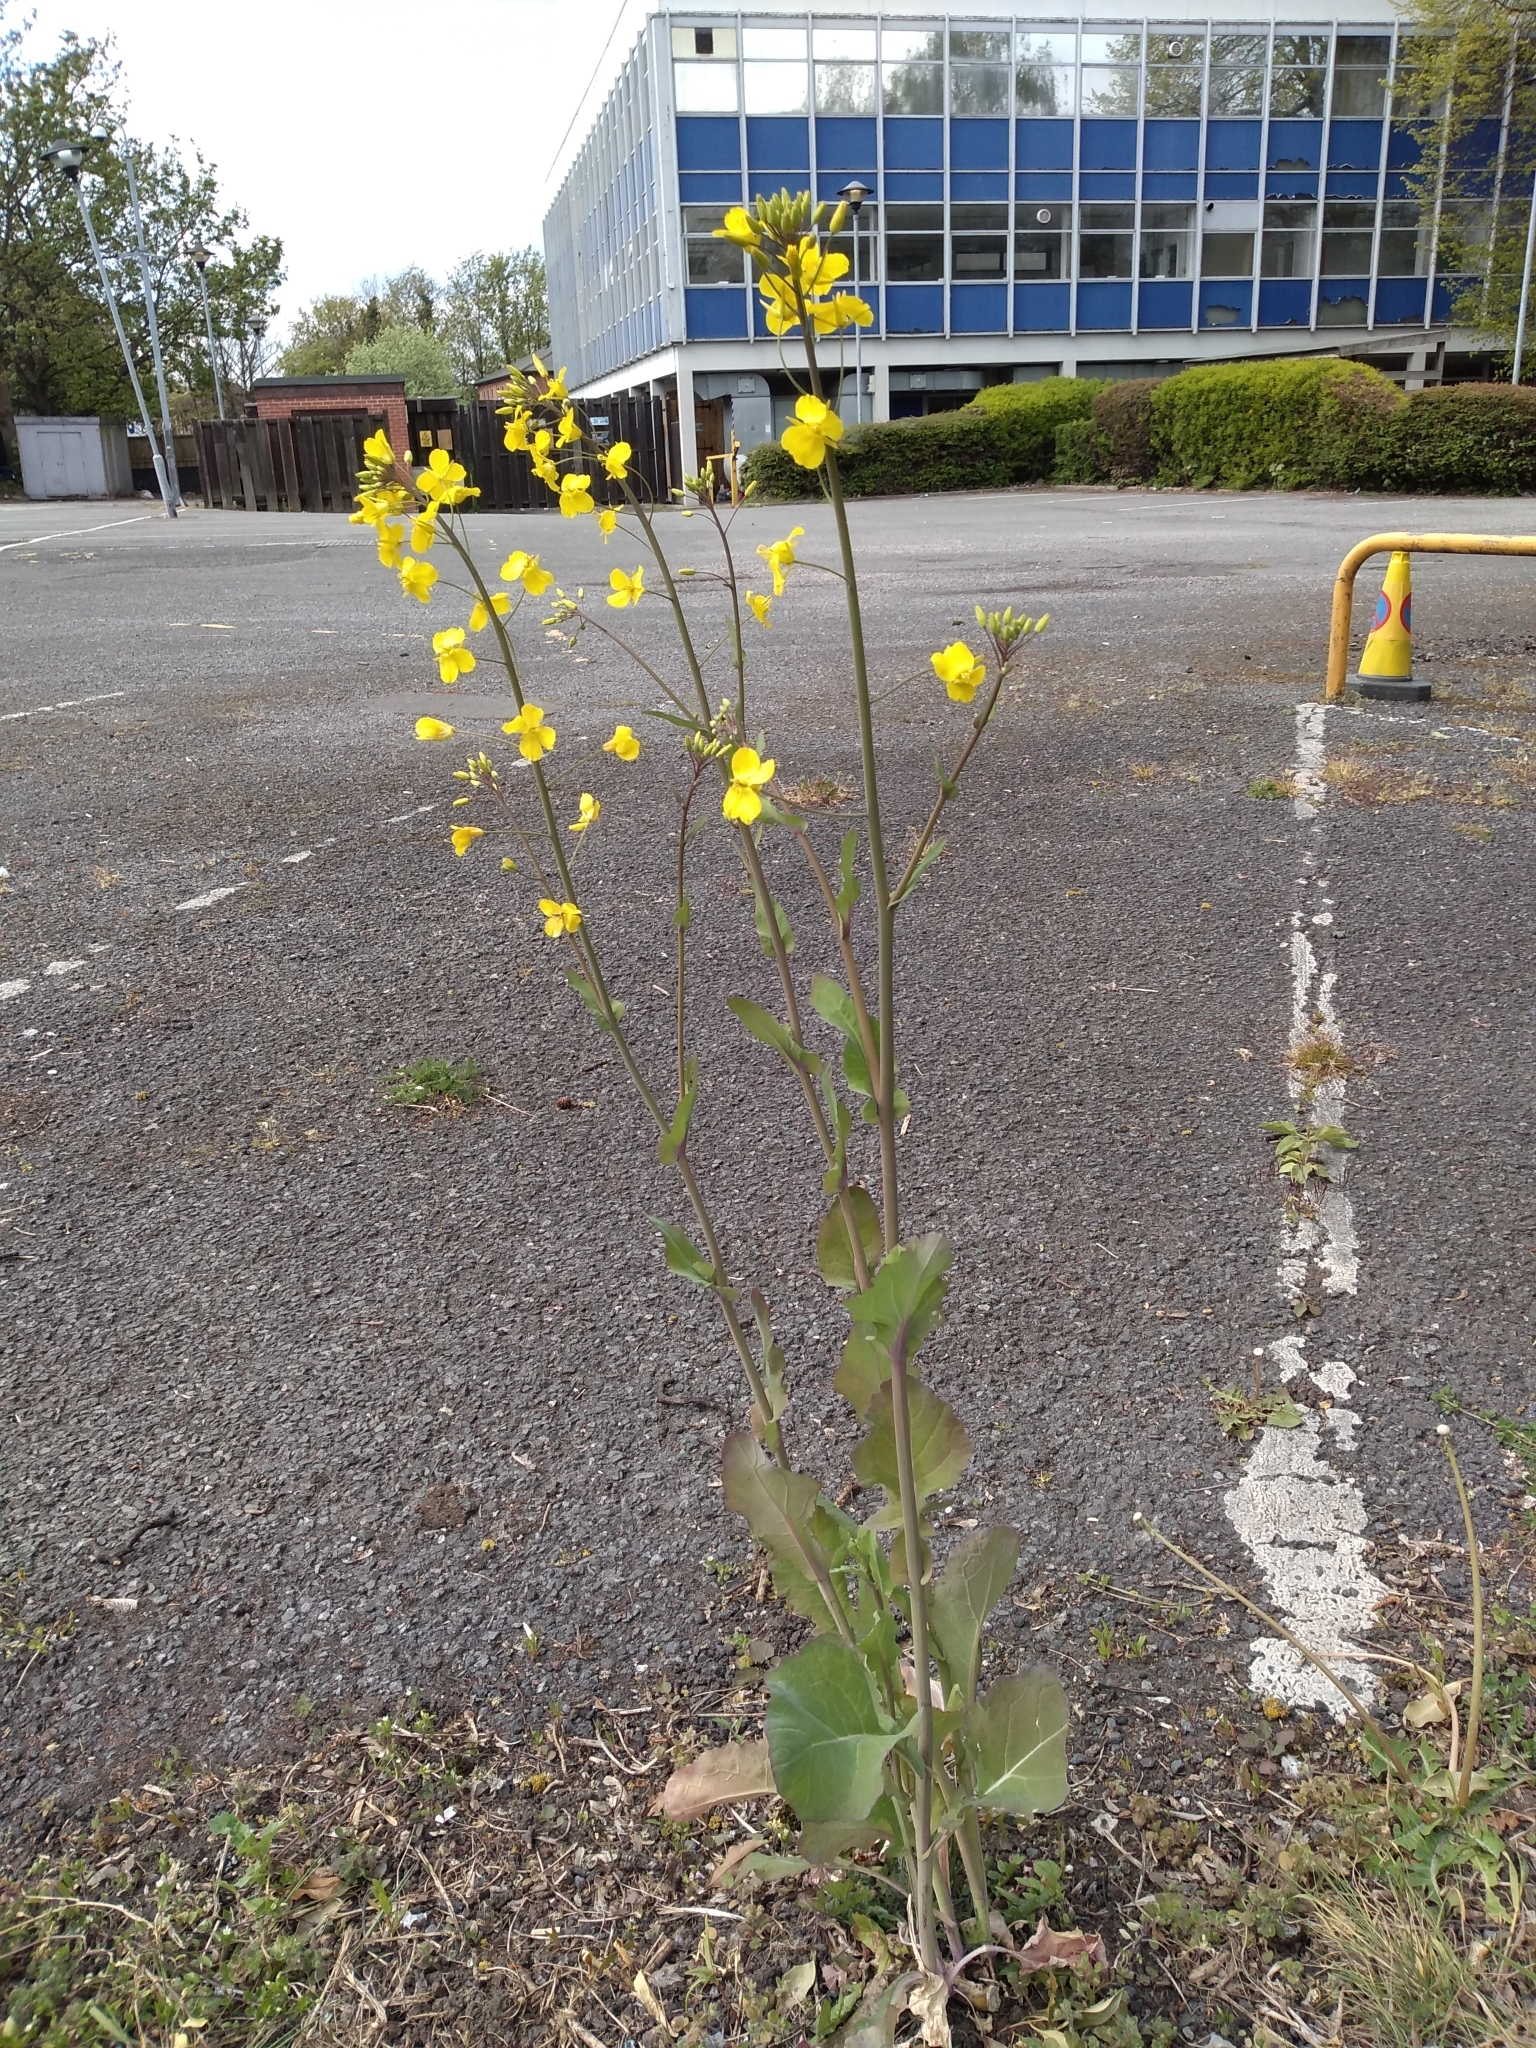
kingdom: Plantae
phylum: Tracheophyta
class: Magnoliopsida
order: Brassicales
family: Brassicaceae
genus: Brassica
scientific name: Brassica napus
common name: Rape
